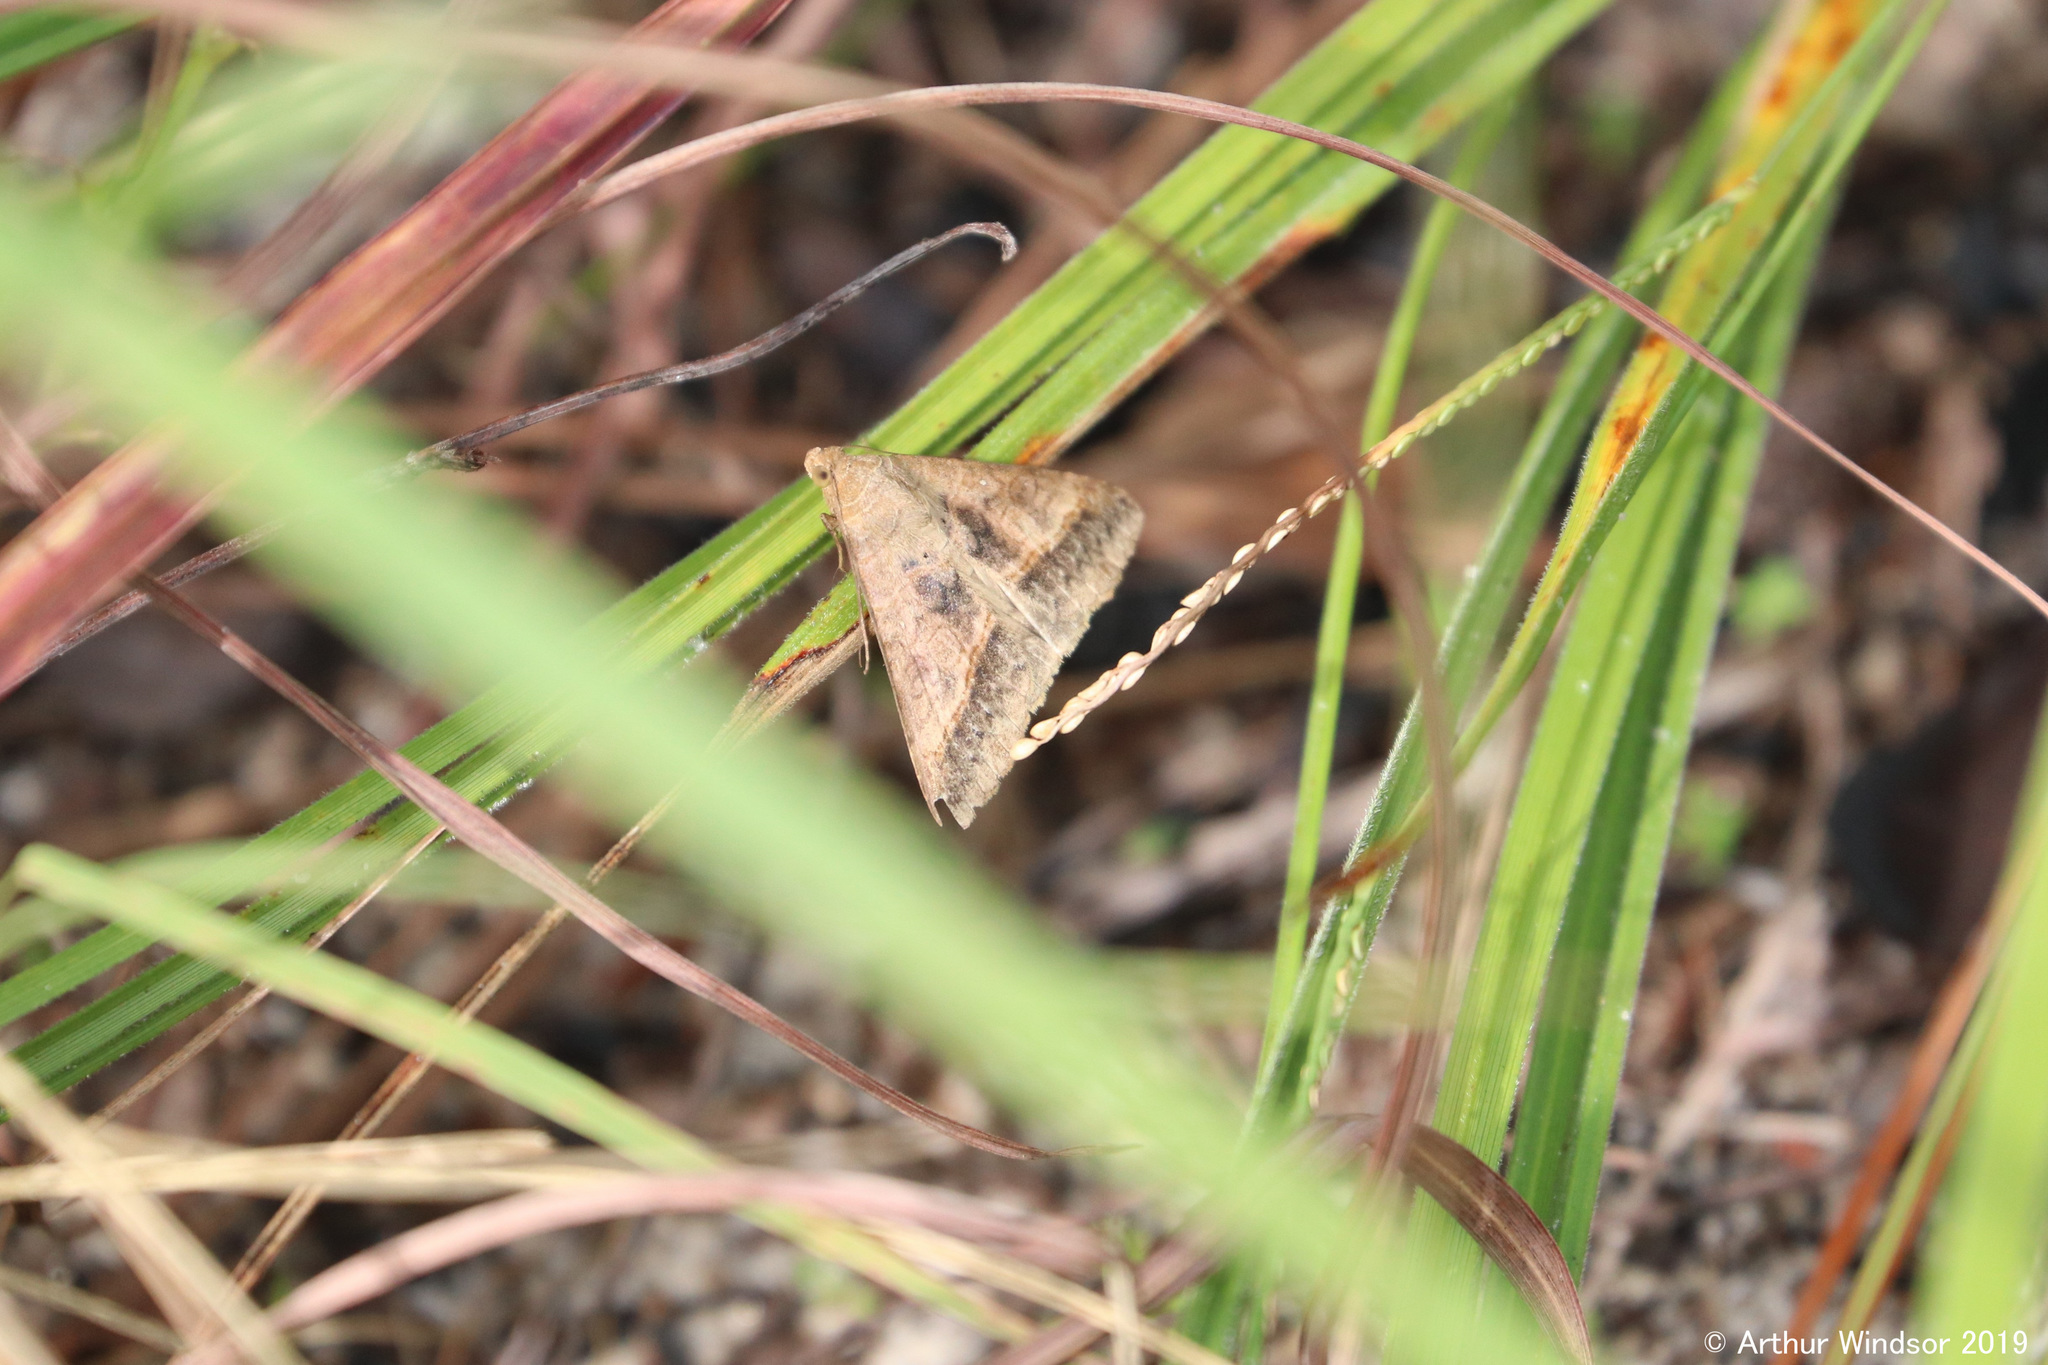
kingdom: Animalia
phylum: Arthropoda
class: Insecta
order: Lepidoptera
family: Erebidae
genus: Mocis
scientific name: Mocis latipes
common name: Striped grass looper
